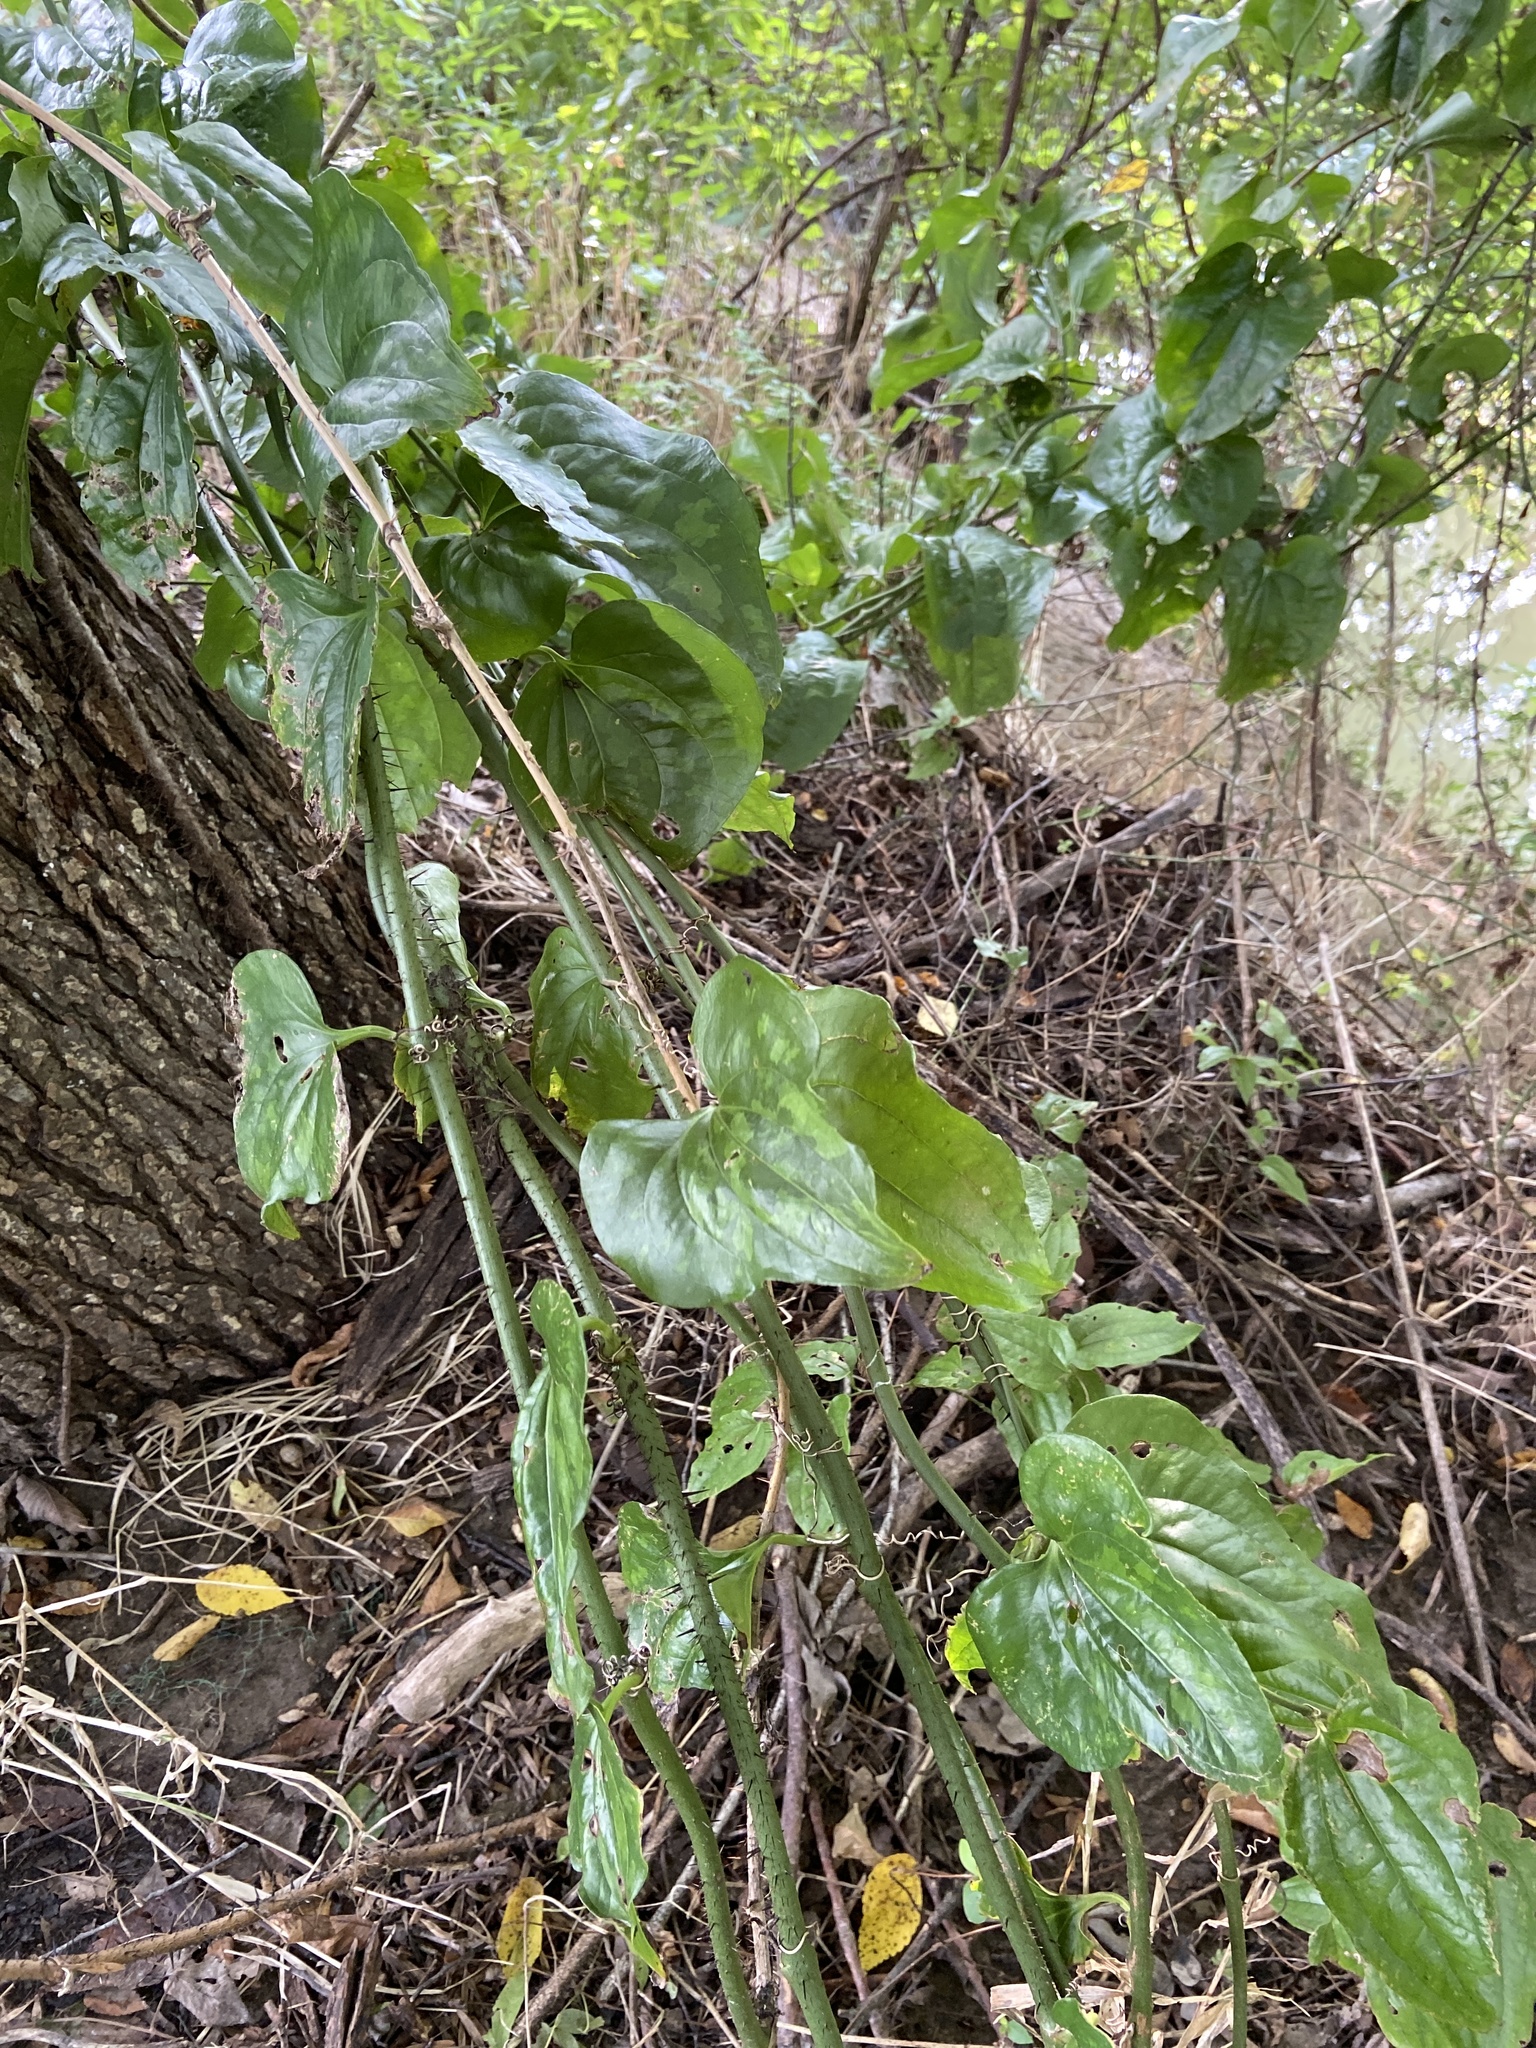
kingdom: Plantae
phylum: Tracheophyta
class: Liliopsida
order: Liliales
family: Smilacaceae
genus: Smilax
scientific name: Smilax tamnoides
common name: Hellfetter
